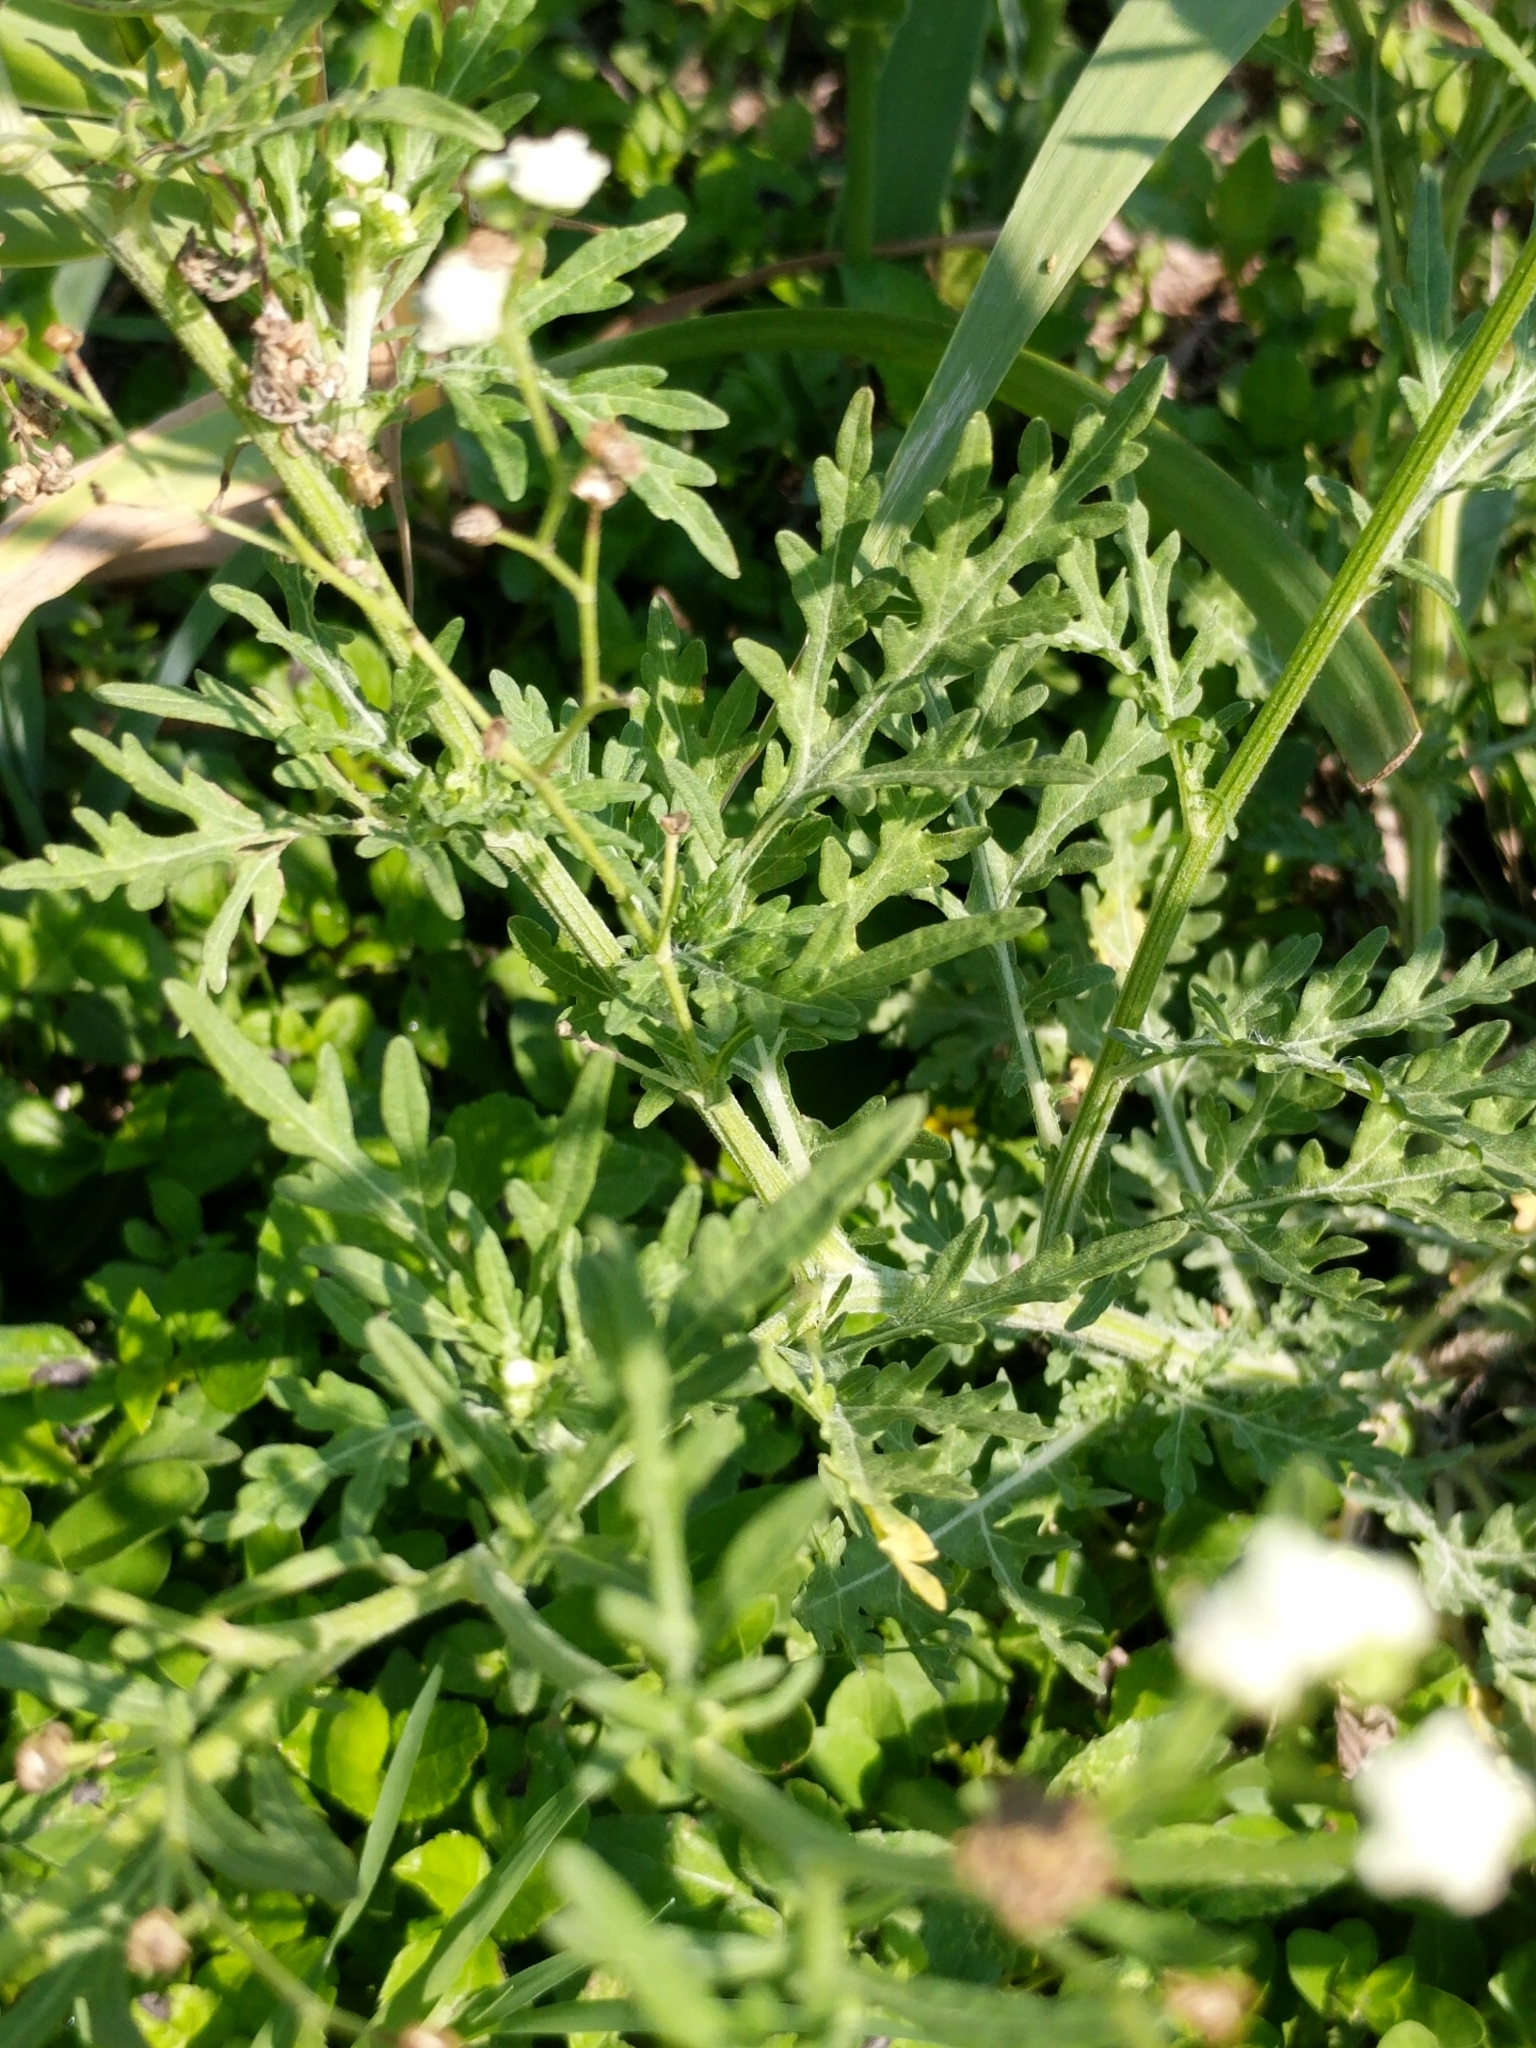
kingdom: Plantae
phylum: Tracheophyta
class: Magnoliopsida
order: Asterales
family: Asteraceae
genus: Parthenium
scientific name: Parthenium hysterophorus
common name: Santa maria feverfew
